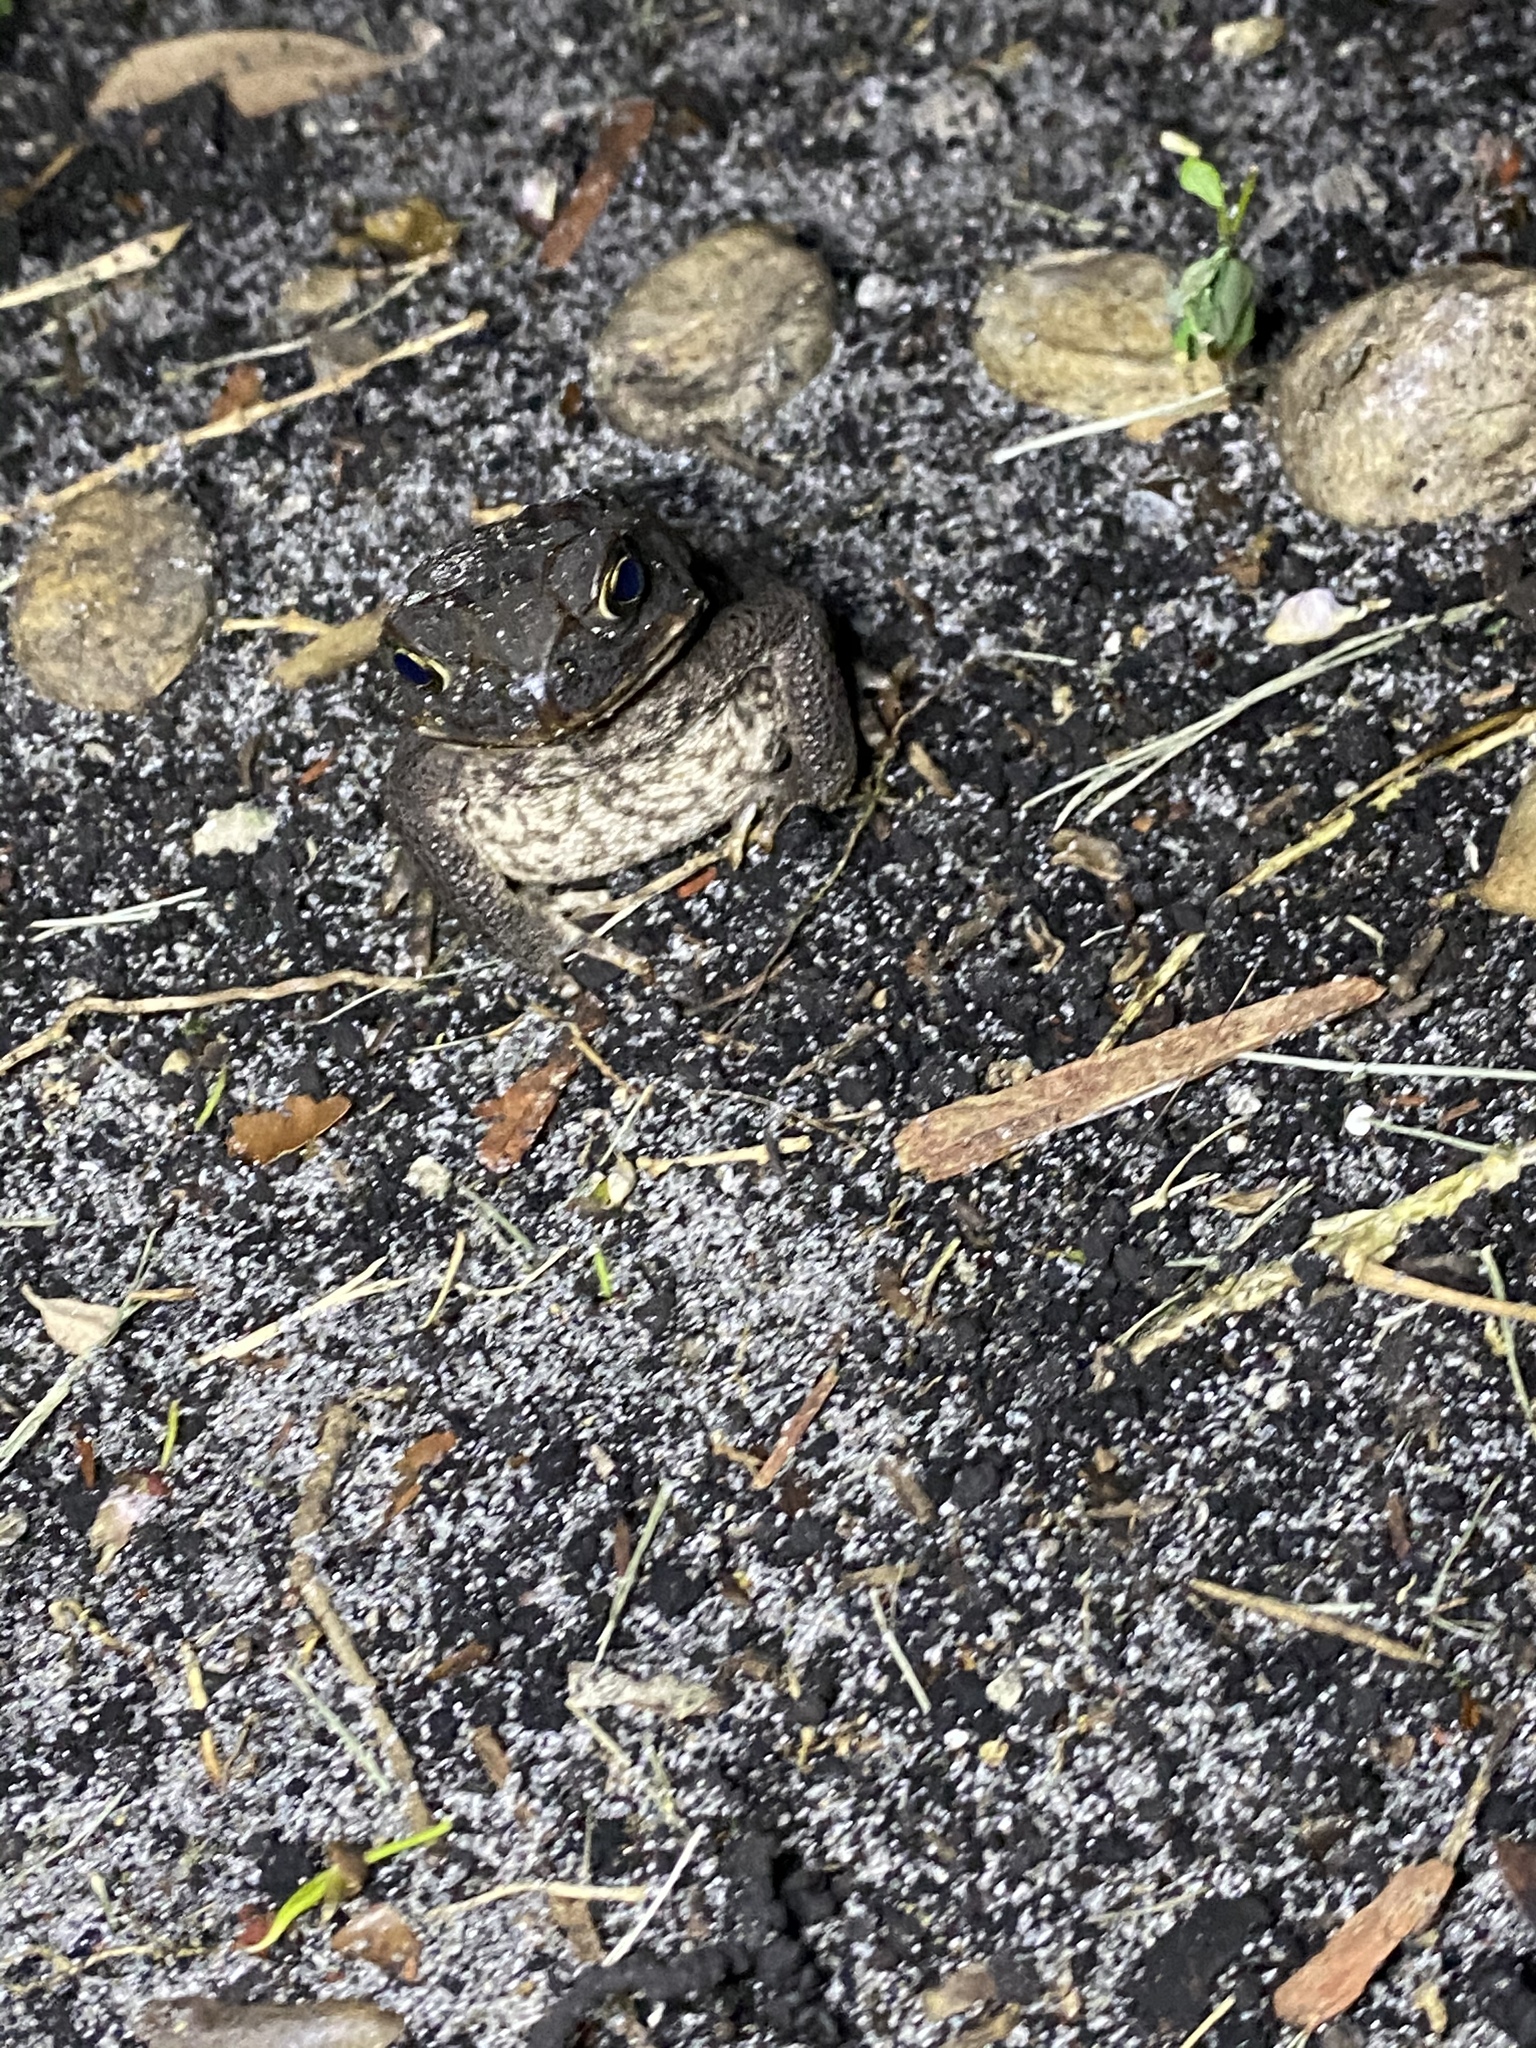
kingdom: Animalia
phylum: Chordata
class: Amphibia
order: Anura
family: Bufonidae
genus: Rhinella
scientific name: Rhinella marina
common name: Cane toad
